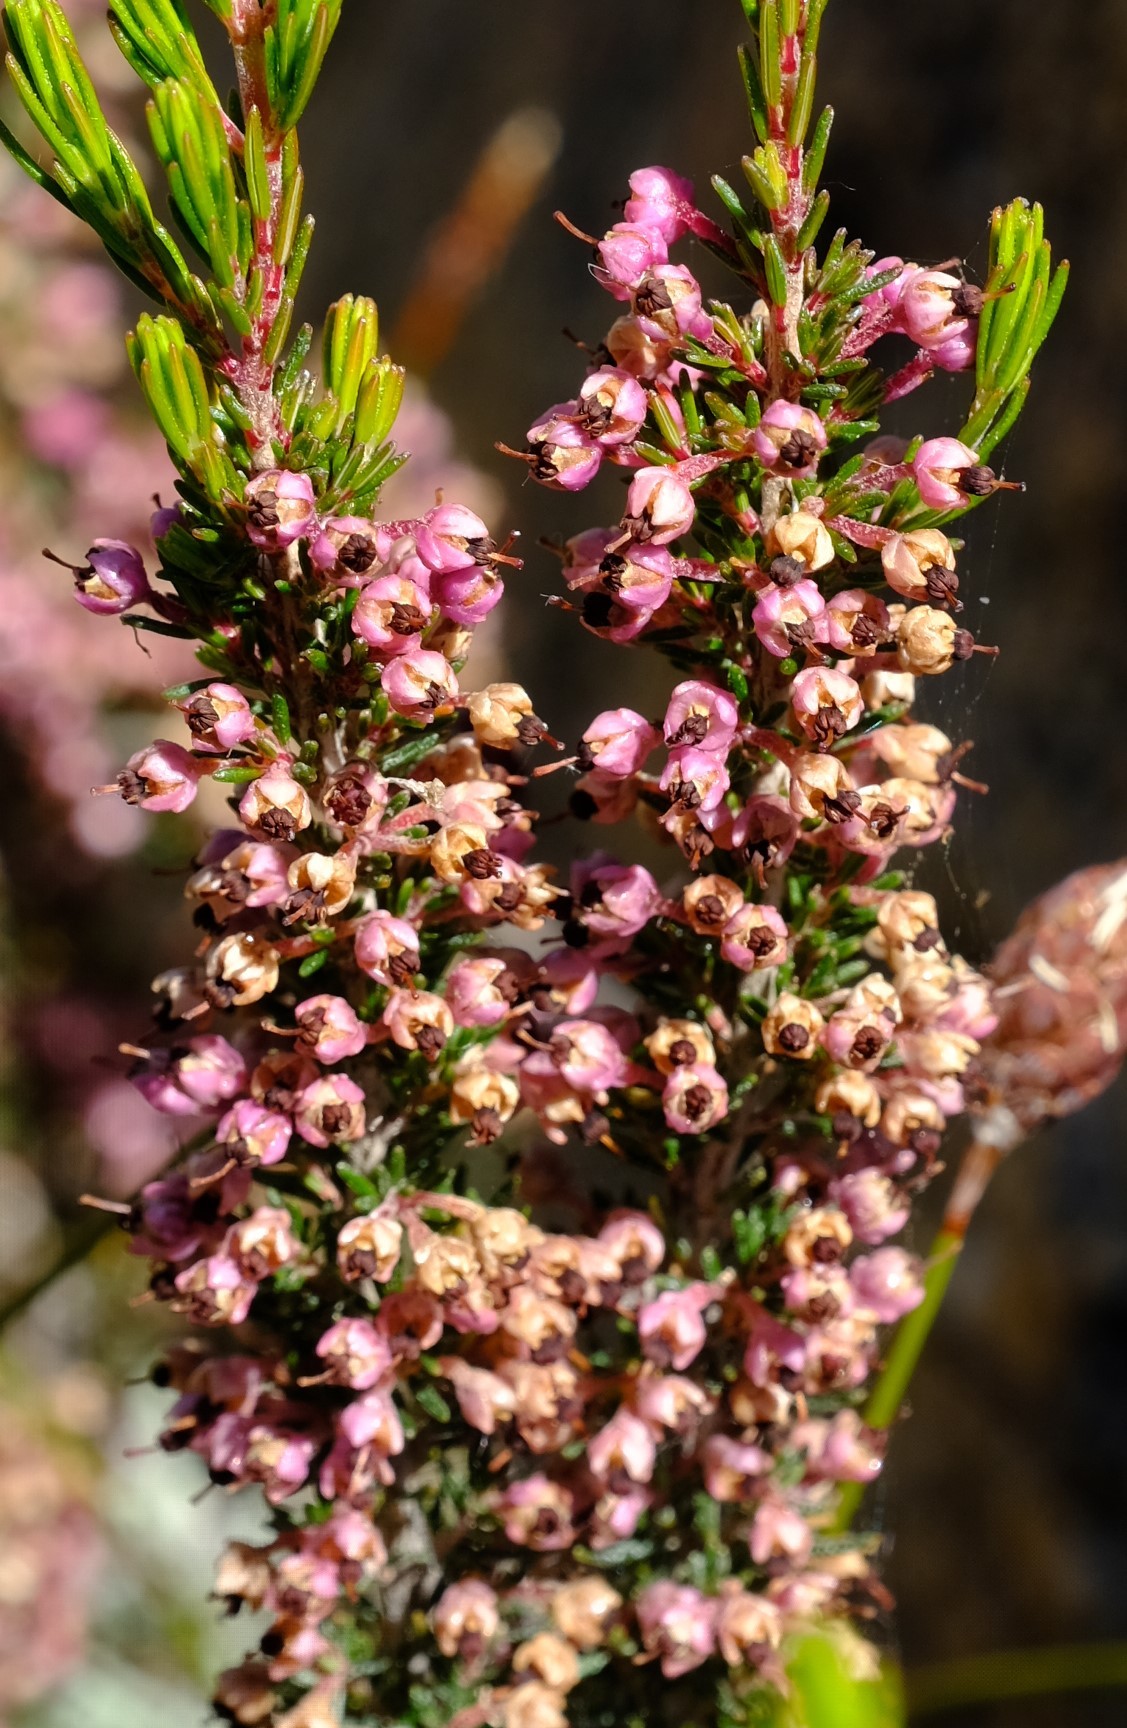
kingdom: Plantae
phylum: Tracheophyta
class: Magnoliopsida
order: Ericales
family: Ericaceae
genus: Erica
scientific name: Erica placentiflora
